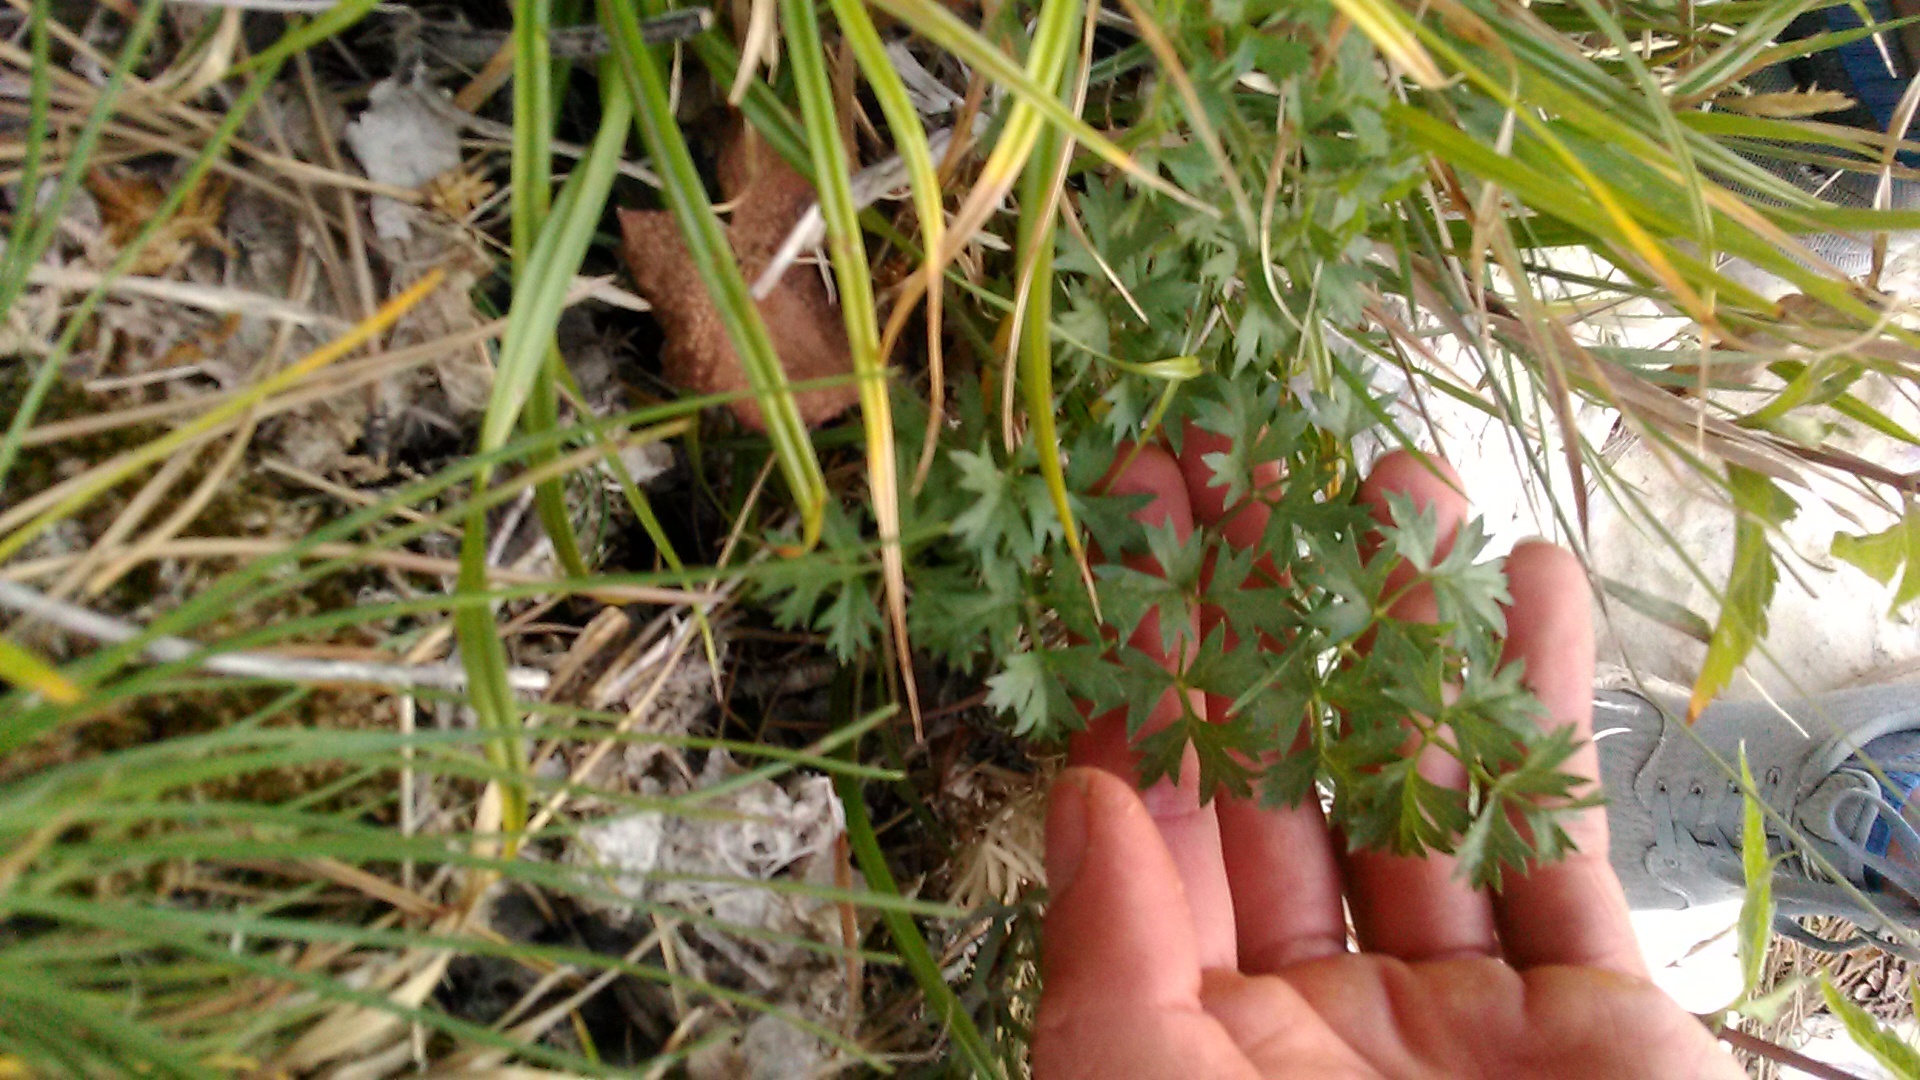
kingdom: Plantae
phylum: Tracheophyta
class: Magnoliopsida
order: Apiales
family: Apiaceae
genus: Pimpinella
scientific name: Pimpinella tragium
